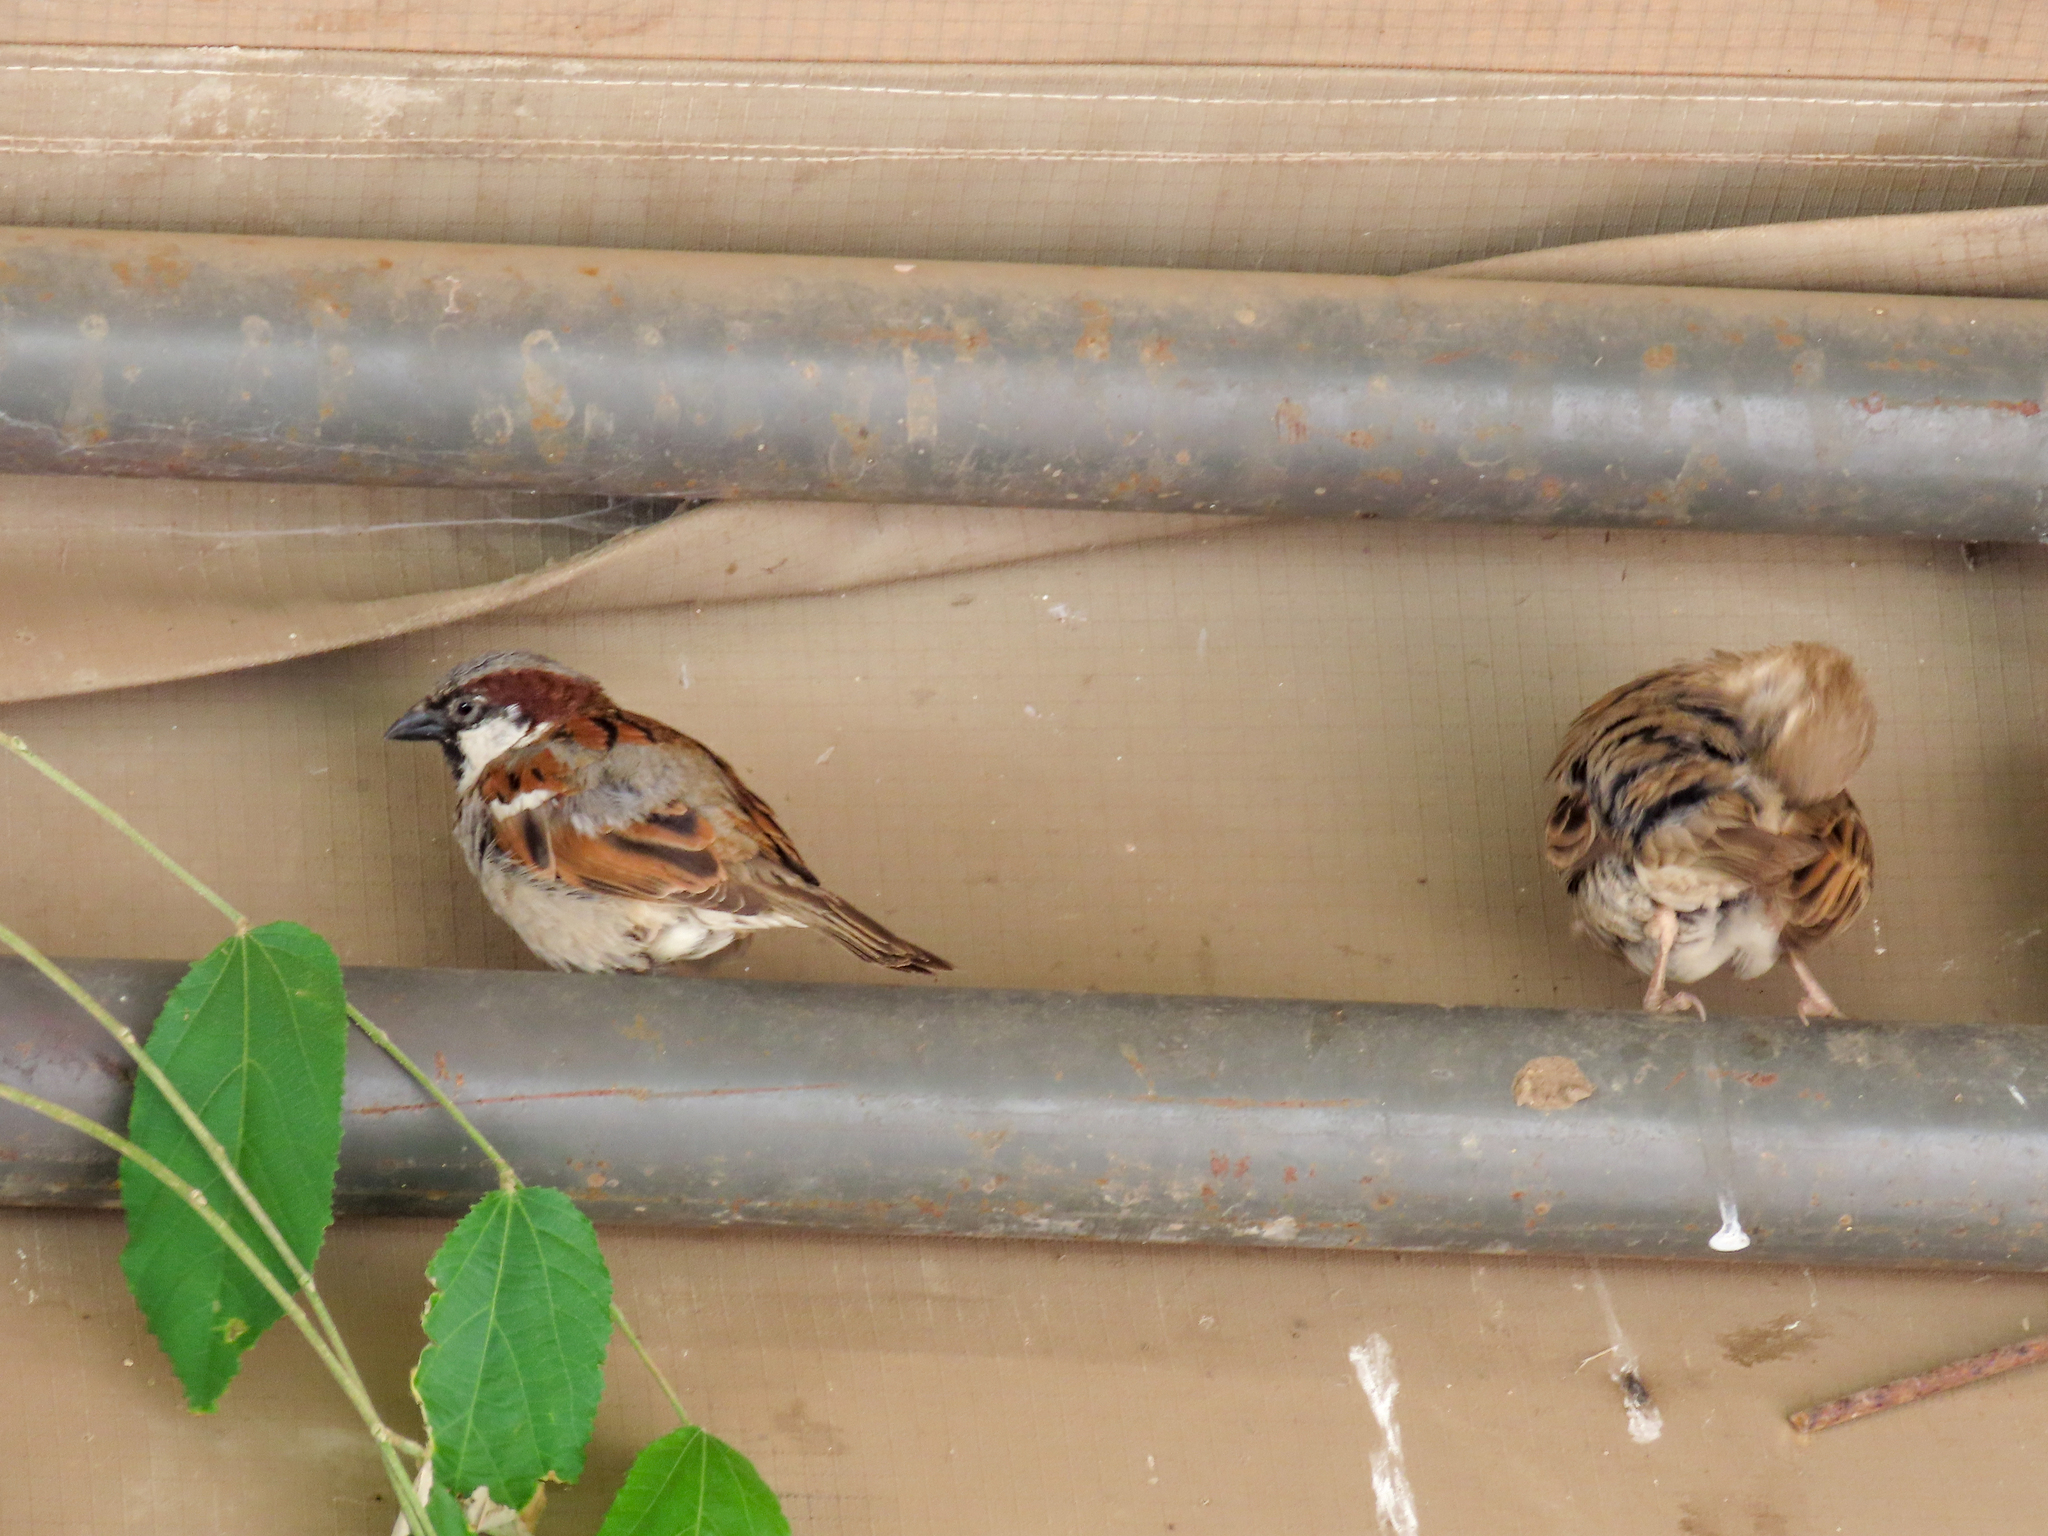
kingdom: Animalia
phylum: Chordata
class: Aves
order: Passeriformes
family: Passeridae
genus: Passer
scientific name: Passer domesticus
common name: House sparrow
